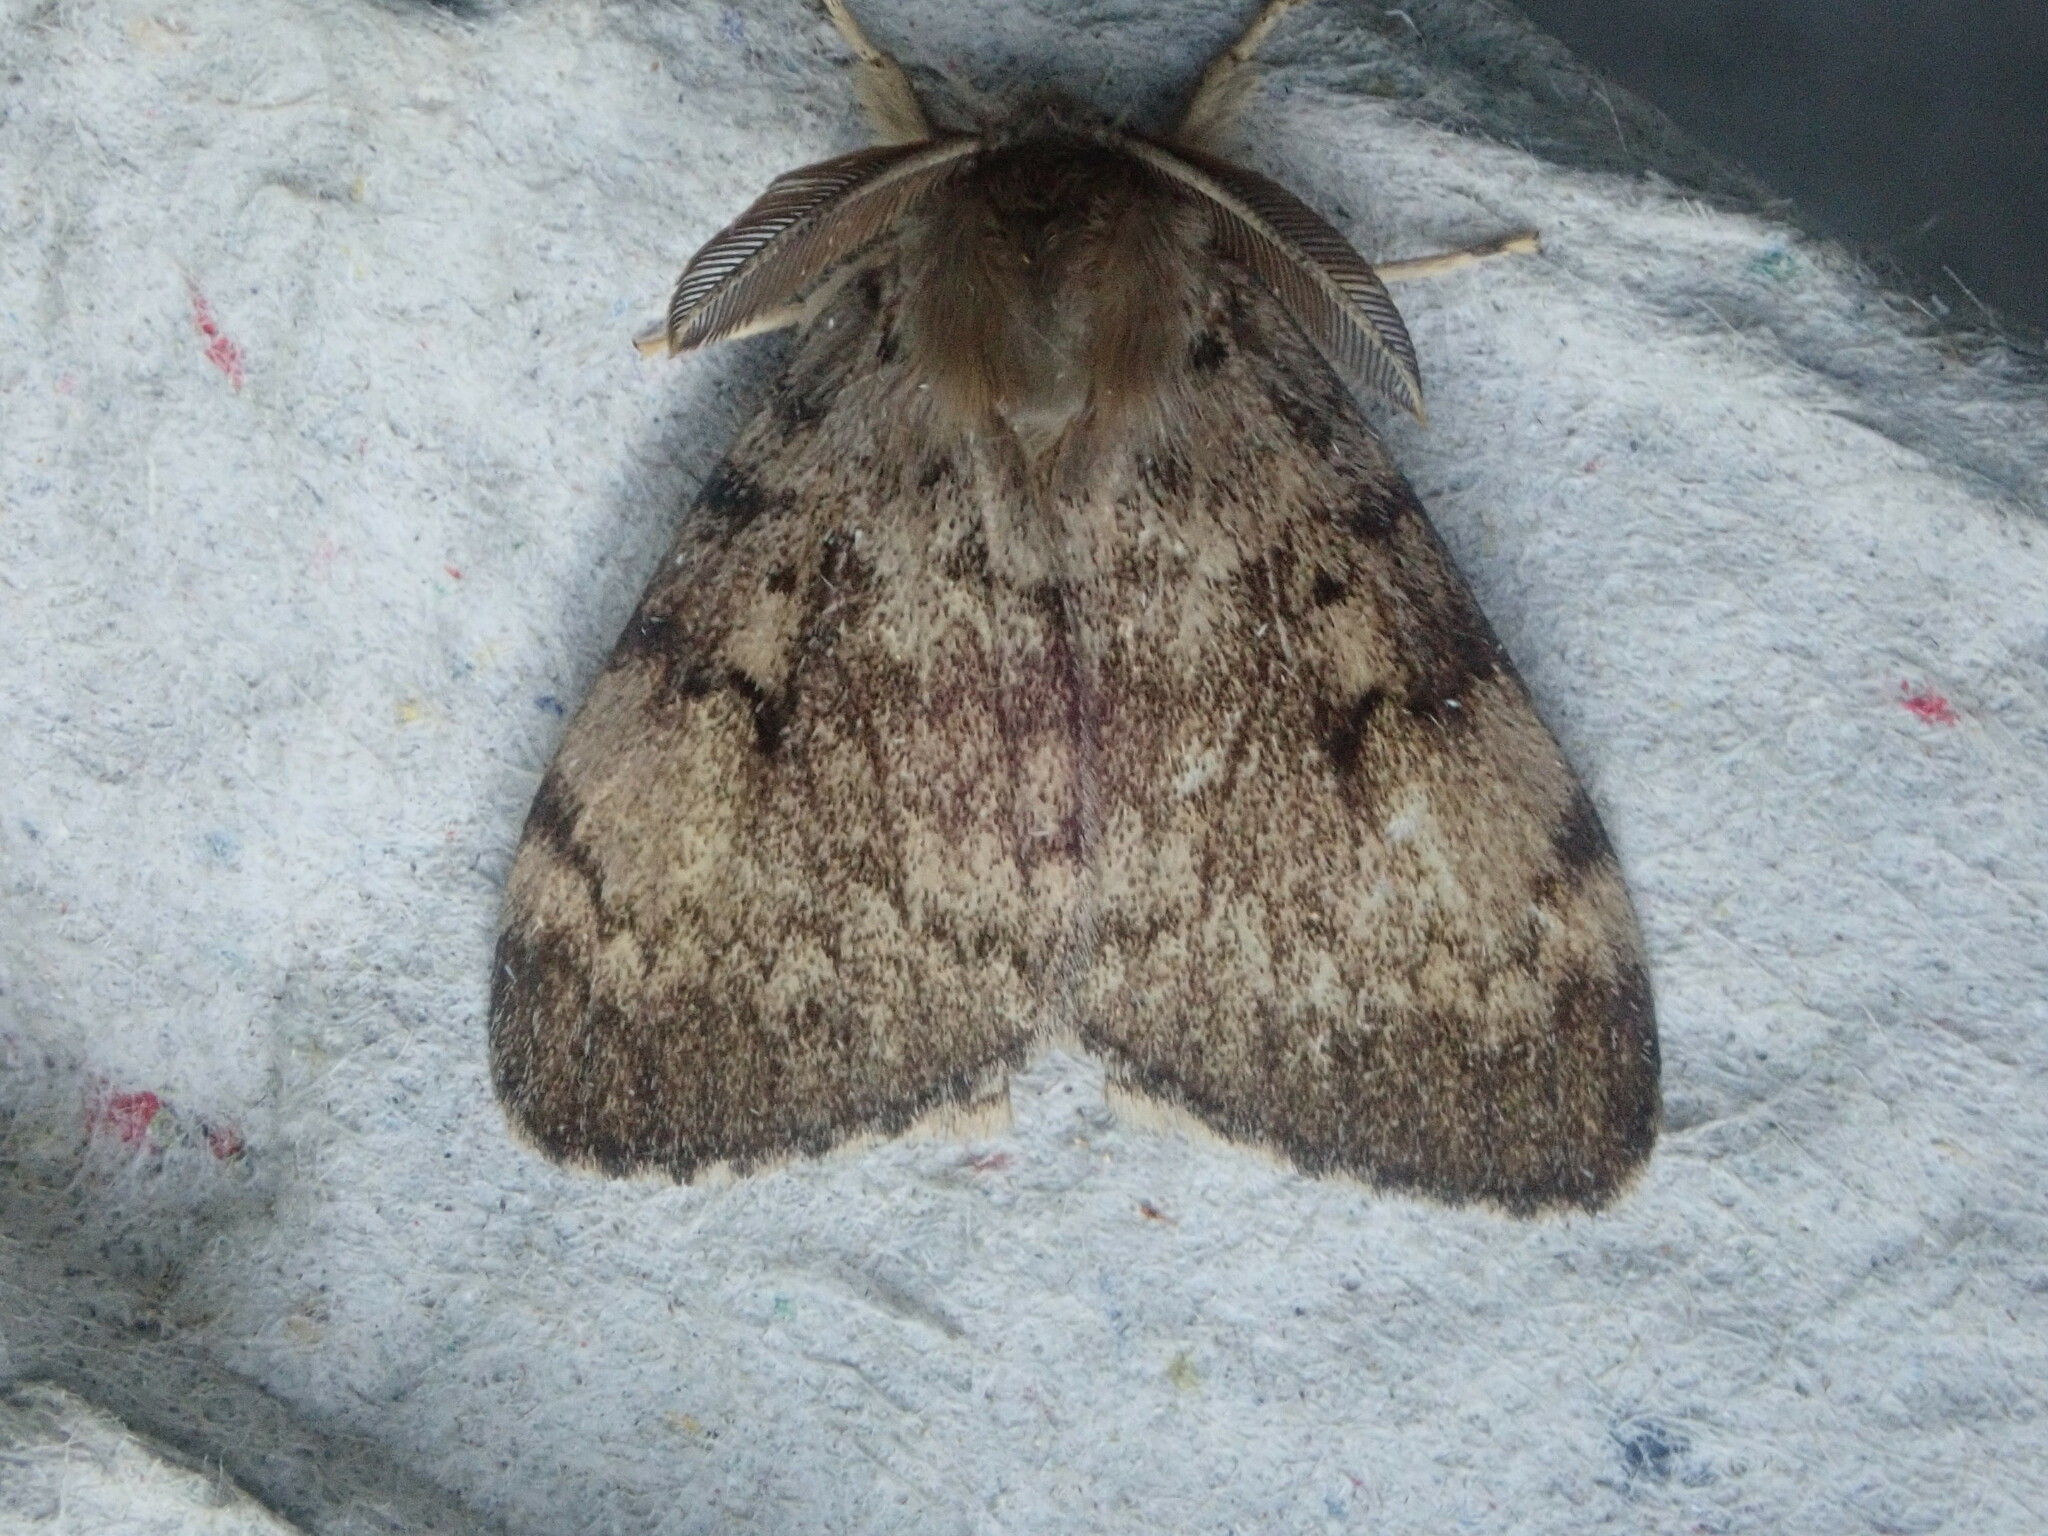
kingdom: Animalia
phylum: Arthropoda
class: Insecta
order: Lepidoptera
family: Erebidae
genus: Lymantria
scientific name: Lymantria dispar
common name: Gypsy moth
